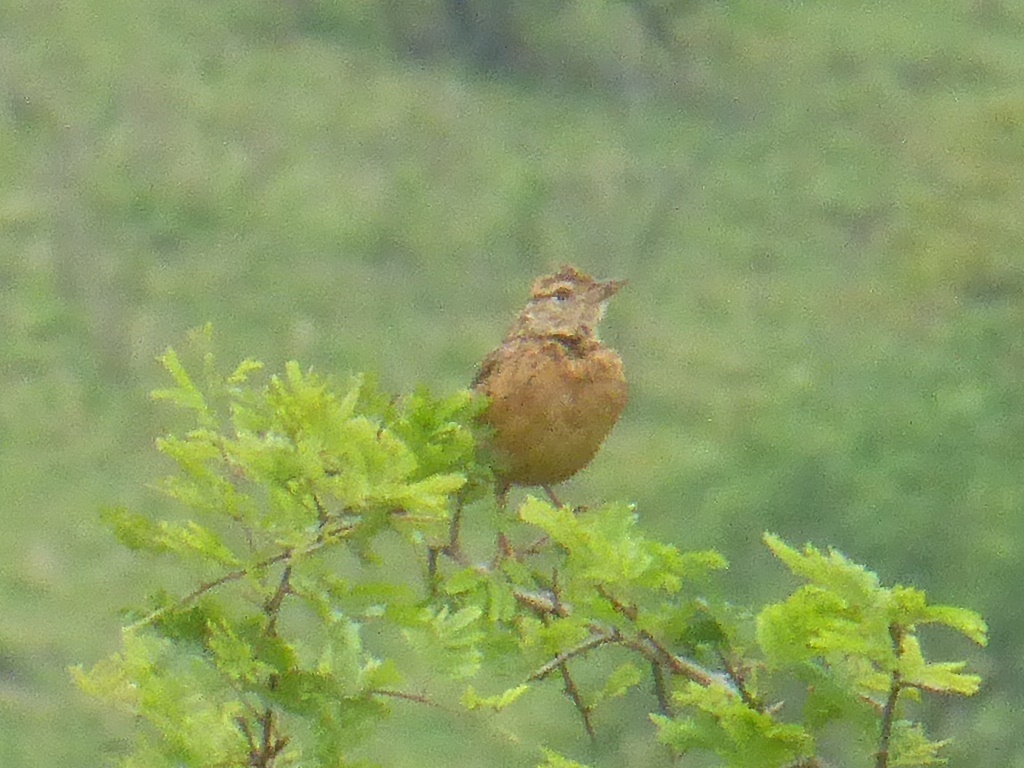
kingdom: Animalia
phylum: Chordata
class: Aves
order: Passeriformes
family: Alaudidae
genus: Mirafra
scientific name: Mirafra africana
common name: Rufous-naped lark
